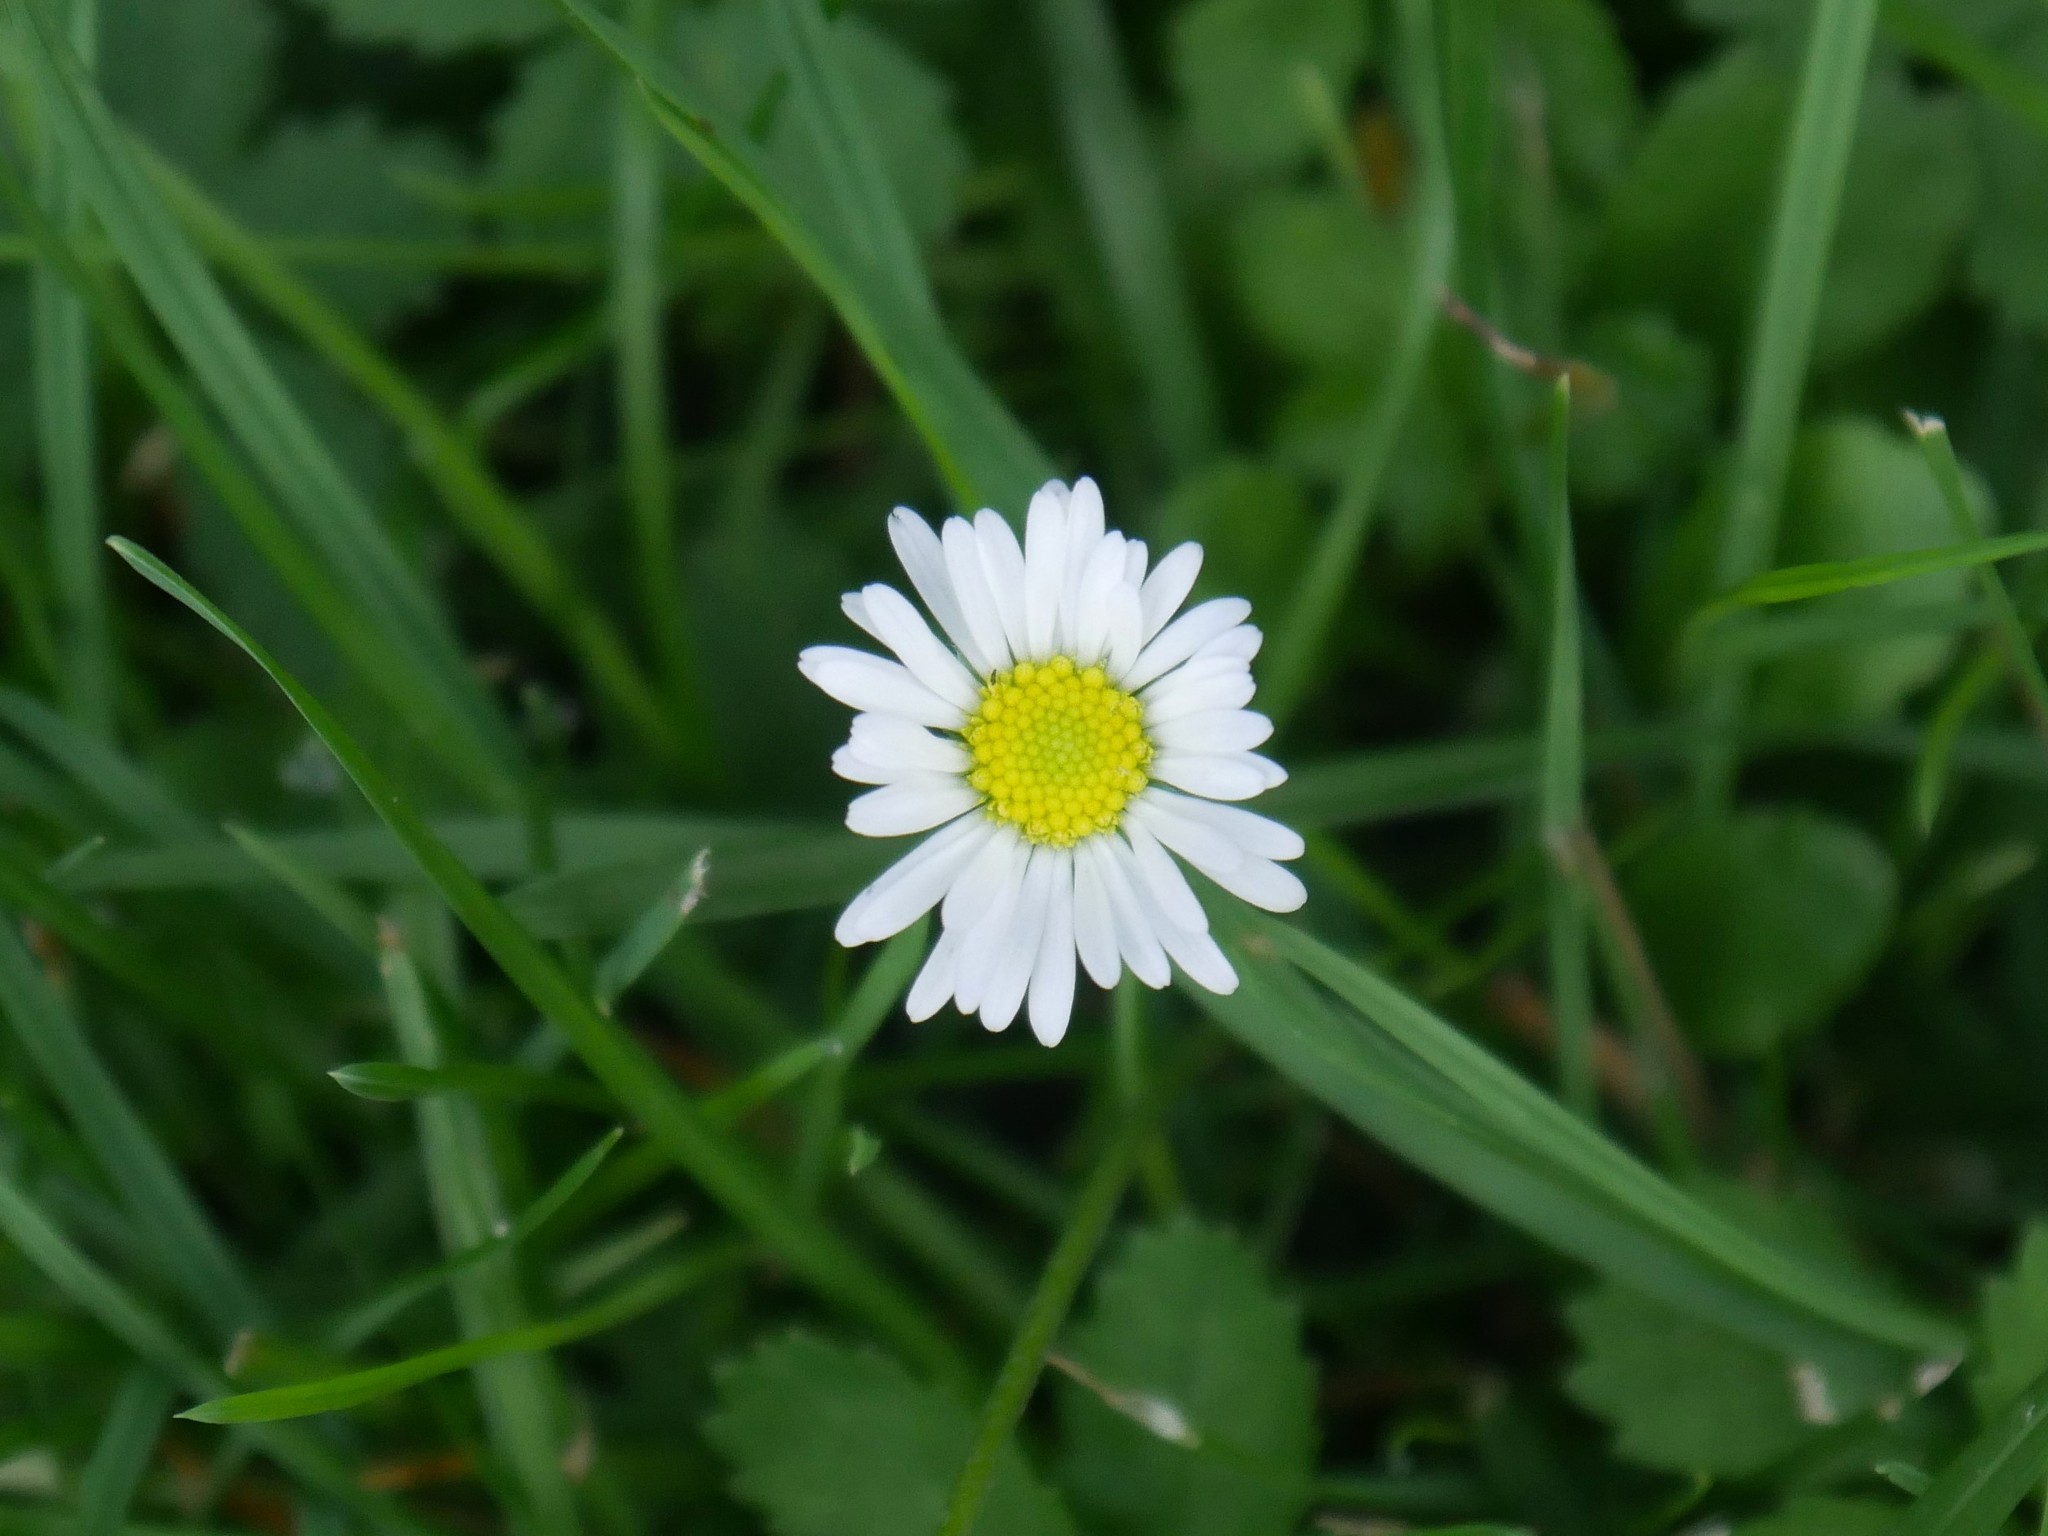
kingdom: Plantae
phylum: Tracheophyta
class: Magnoliopsida
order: Asterales
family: Asteraceae
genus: Bellis
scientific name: Bellis perennis
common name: Lawndaisy
